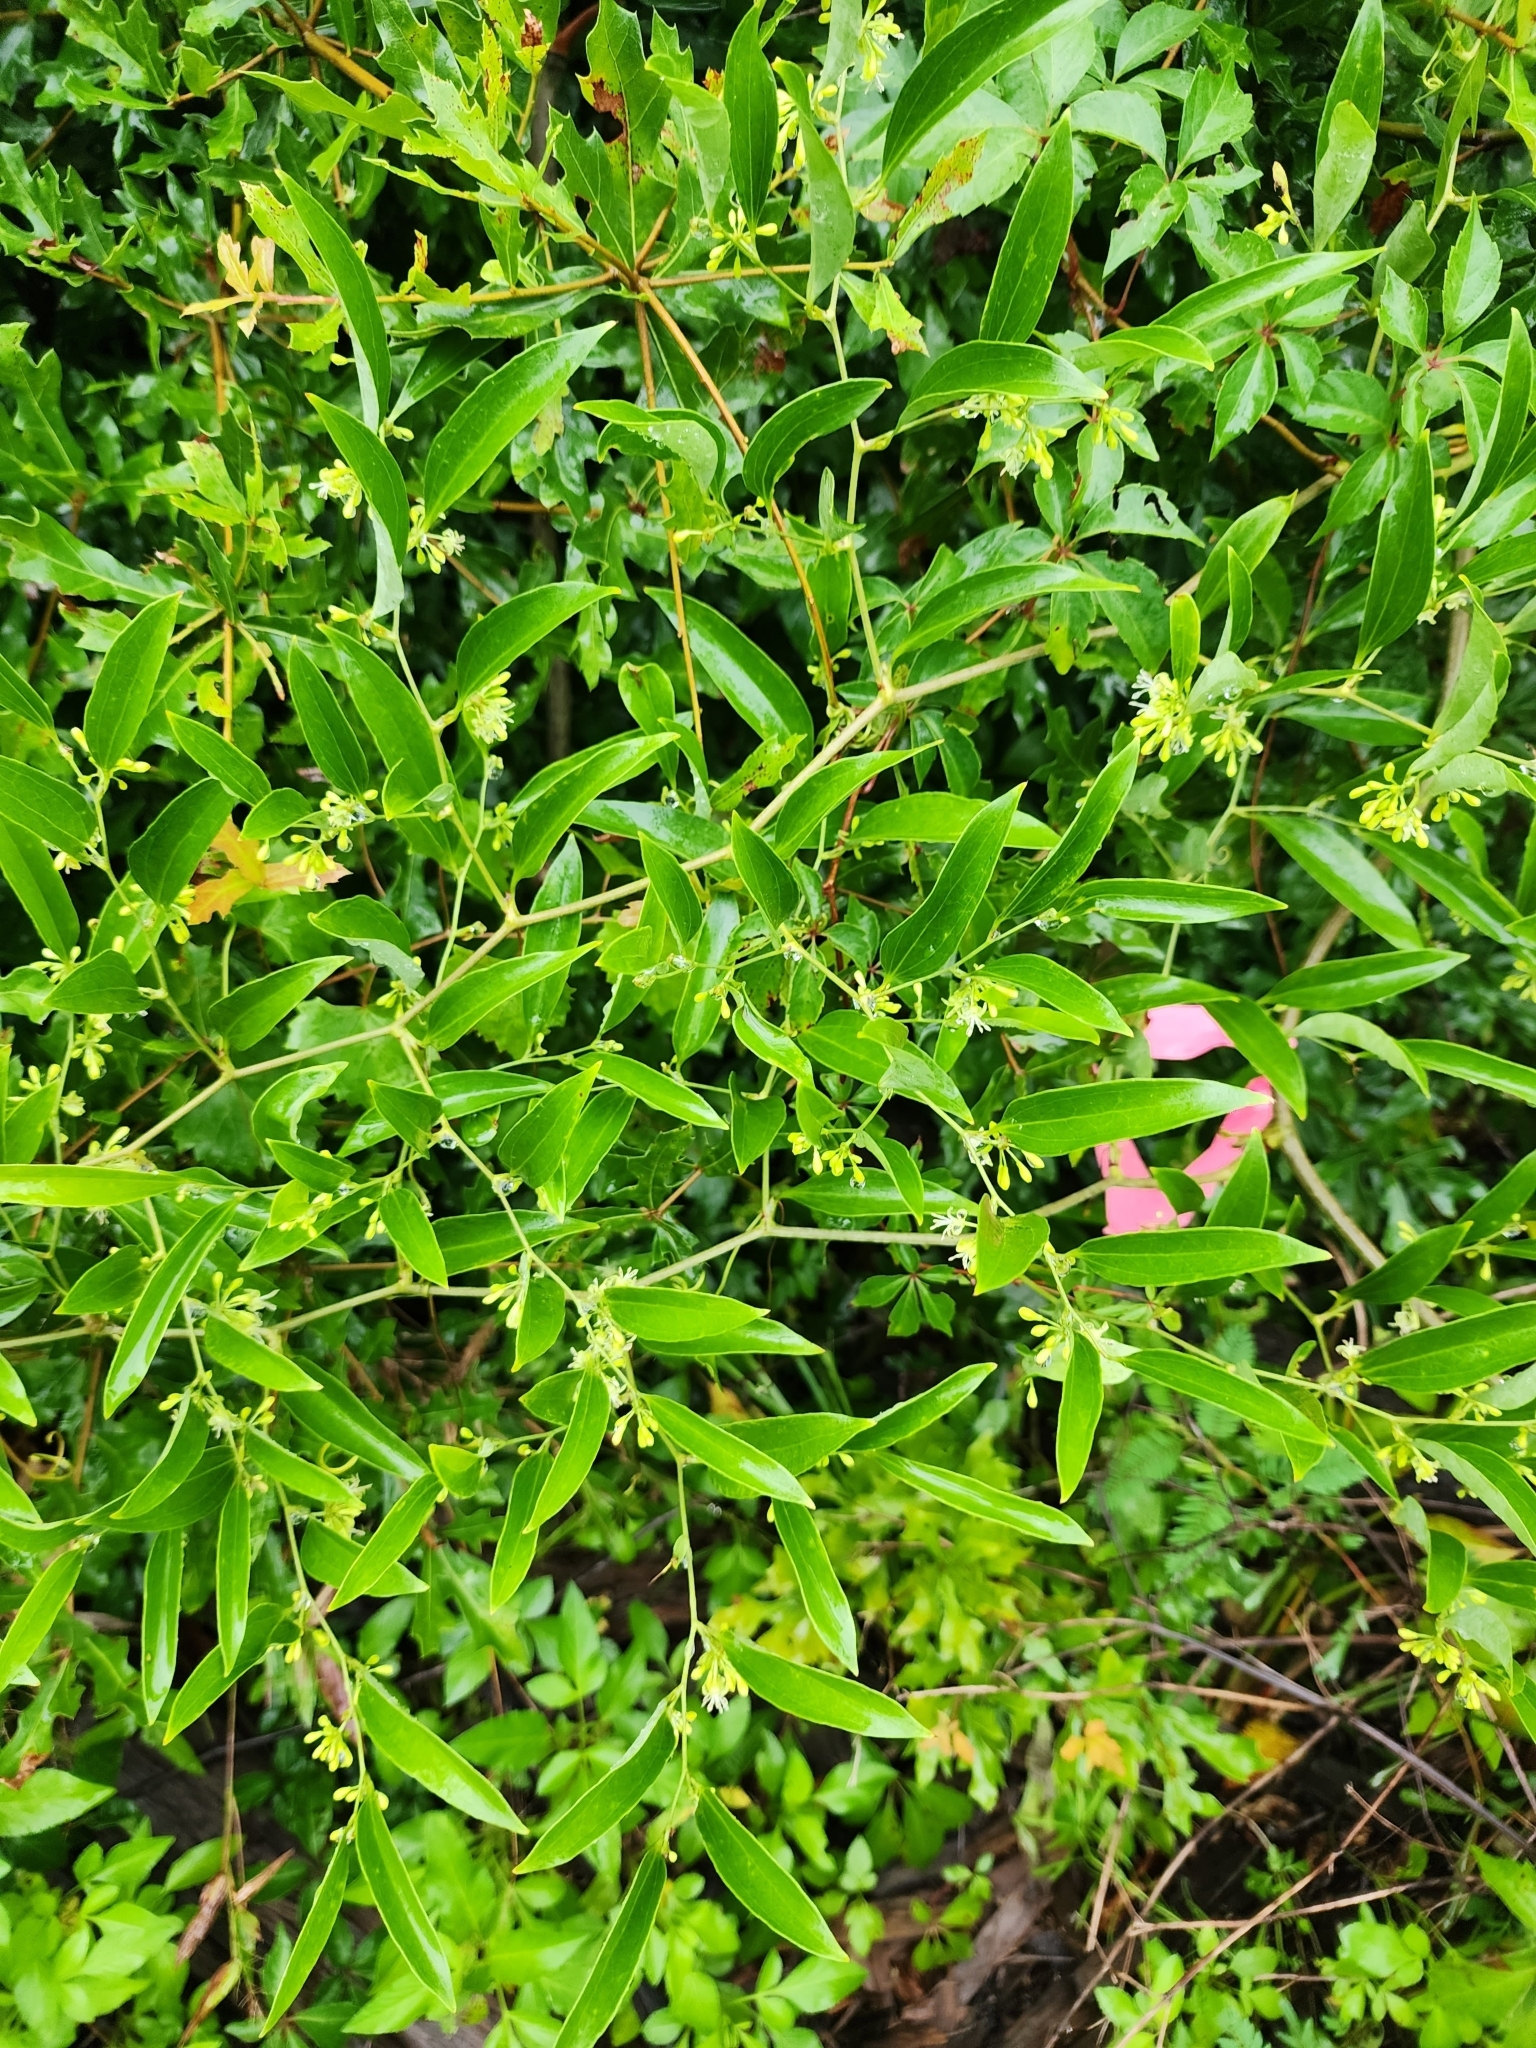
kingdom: Plantae
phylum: Tracheophyta
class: Liliopsida
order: Liliales
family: Smilacaceae
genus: Smilax
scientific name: Smilax maritima
